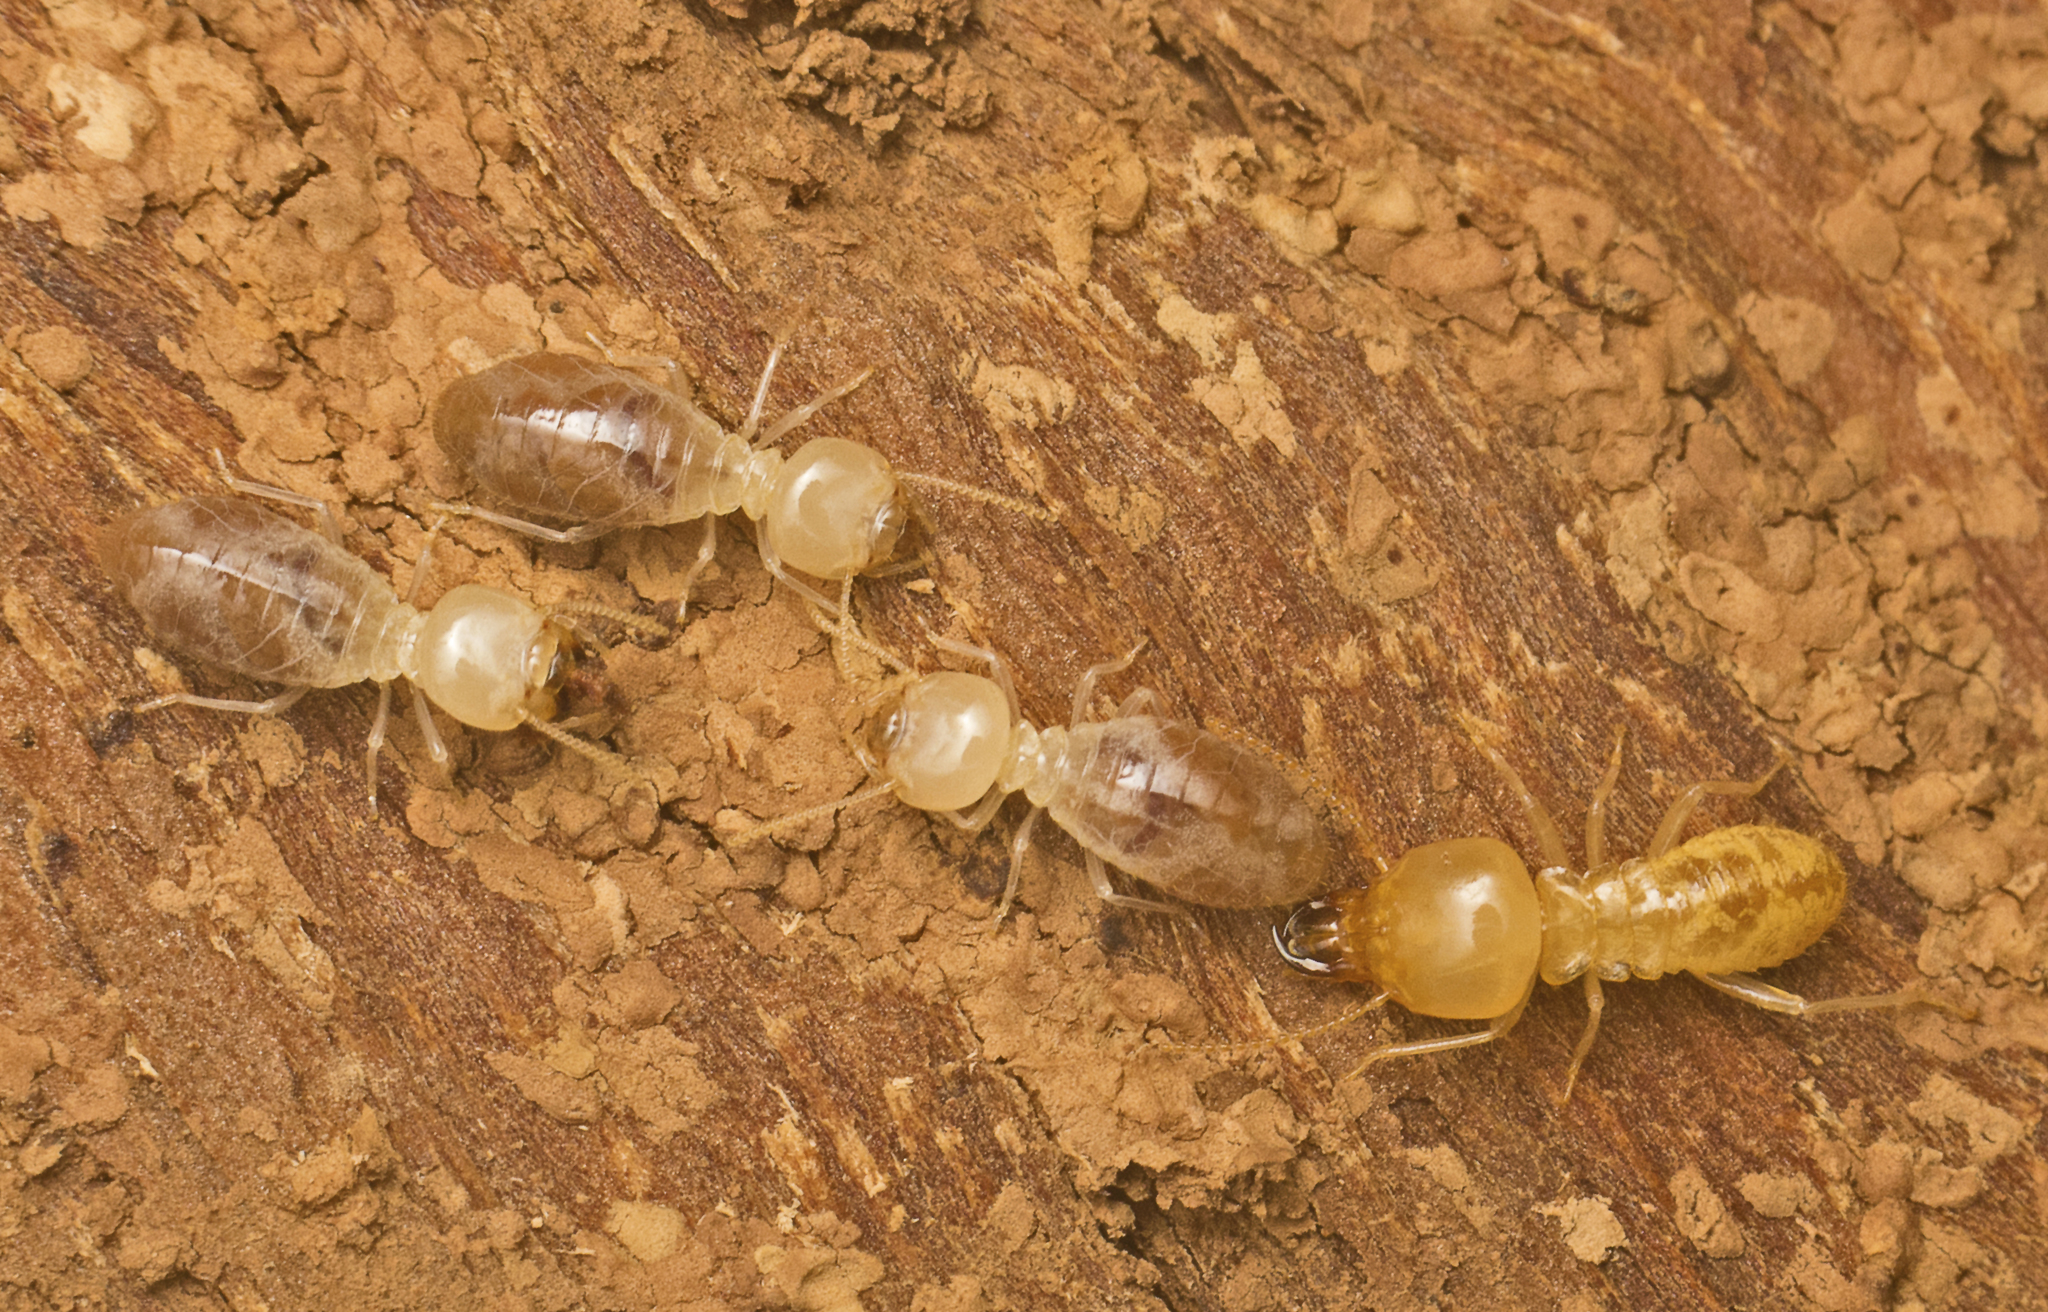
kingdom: Animalia
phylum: Arthropoda
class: Insecta
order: Blattodea
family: Rhinotermitidae
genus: Schedorhinotermes
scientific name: Schedorhinotermes intermedius
